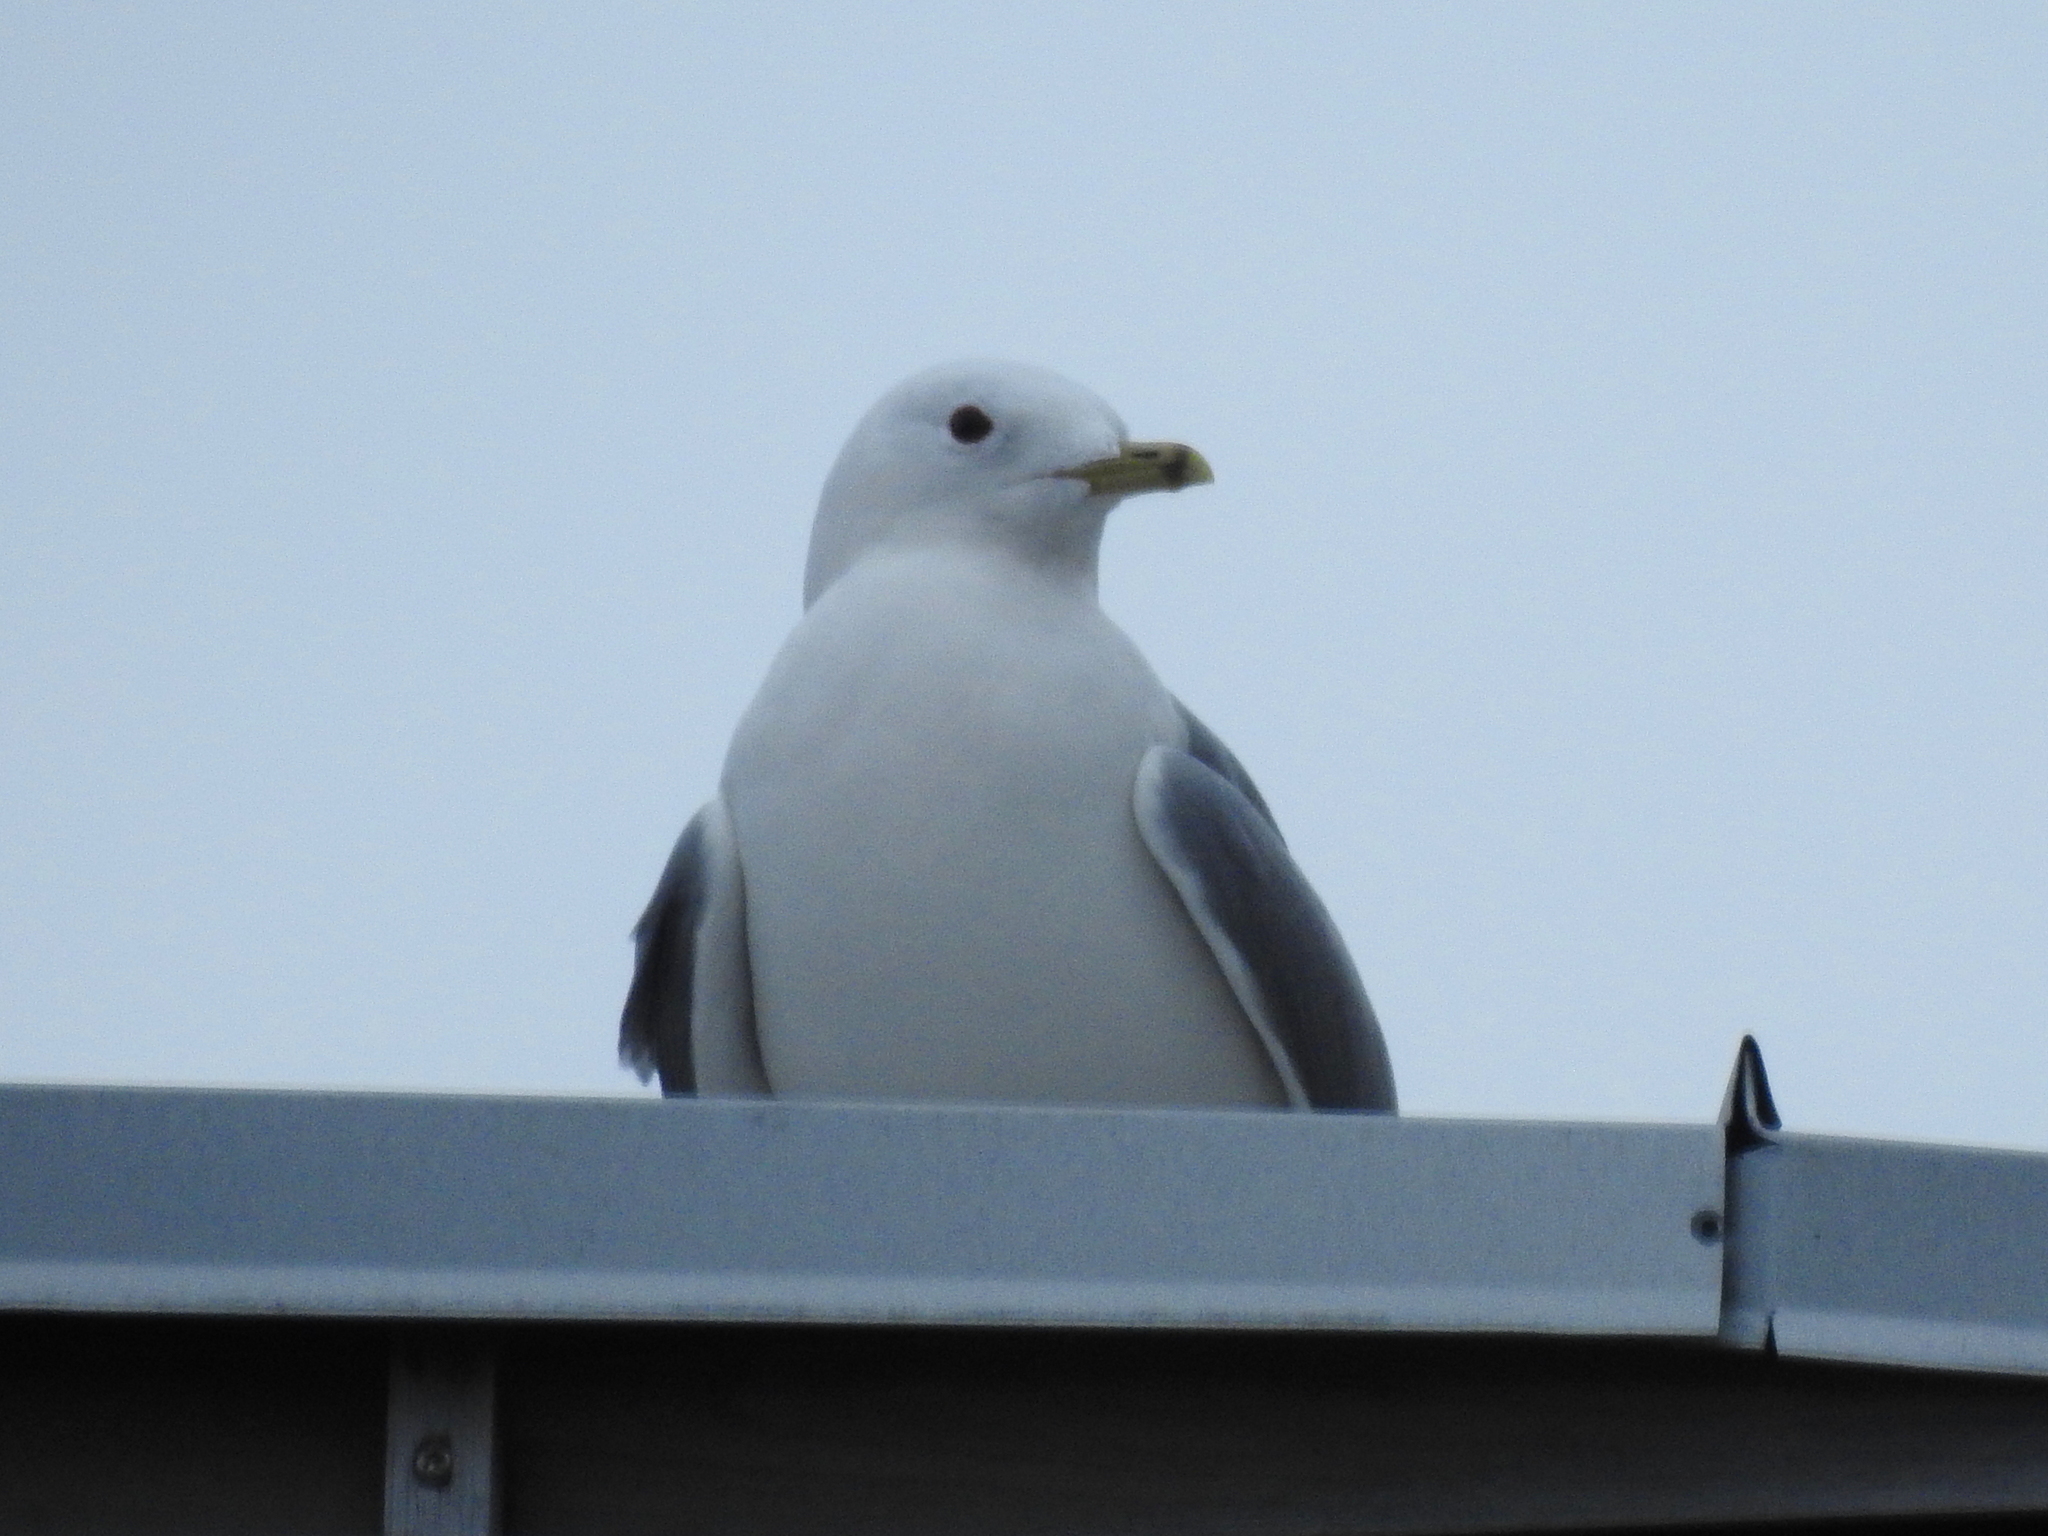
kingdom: Animalia
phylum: Chordata
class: Aves
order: Charadriiformes
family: Laridae
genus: Larus
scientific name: Larus canus
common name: Mew gull
